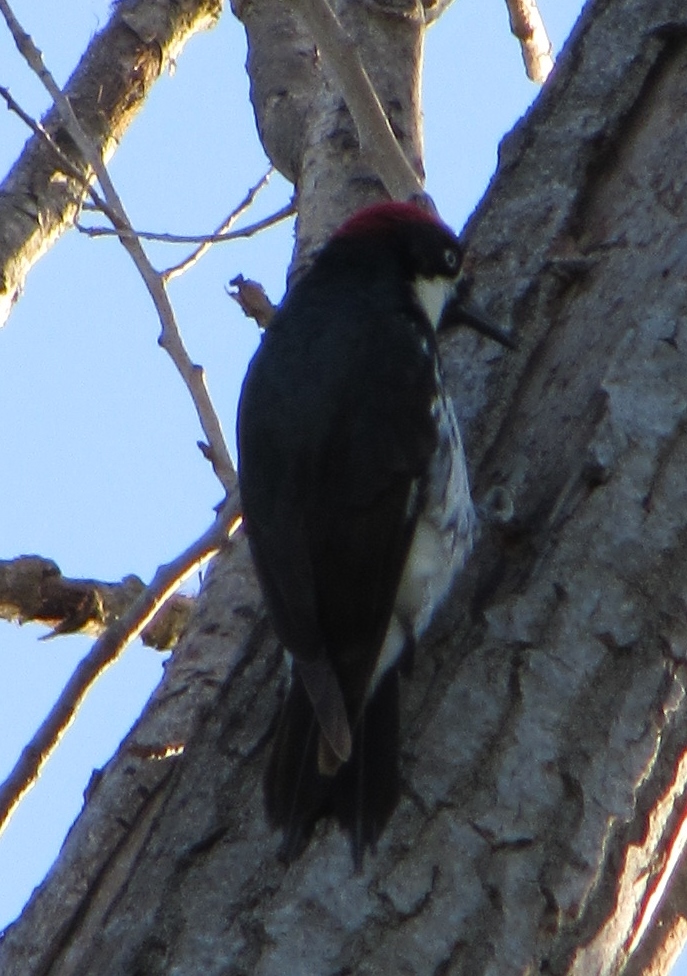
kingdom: Animalia
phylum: Chordata
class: Aves
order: Piciformes
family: Picidae
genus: Melanerpes
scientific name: Melanerpes formicivorus
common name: Acorn woodpecker
